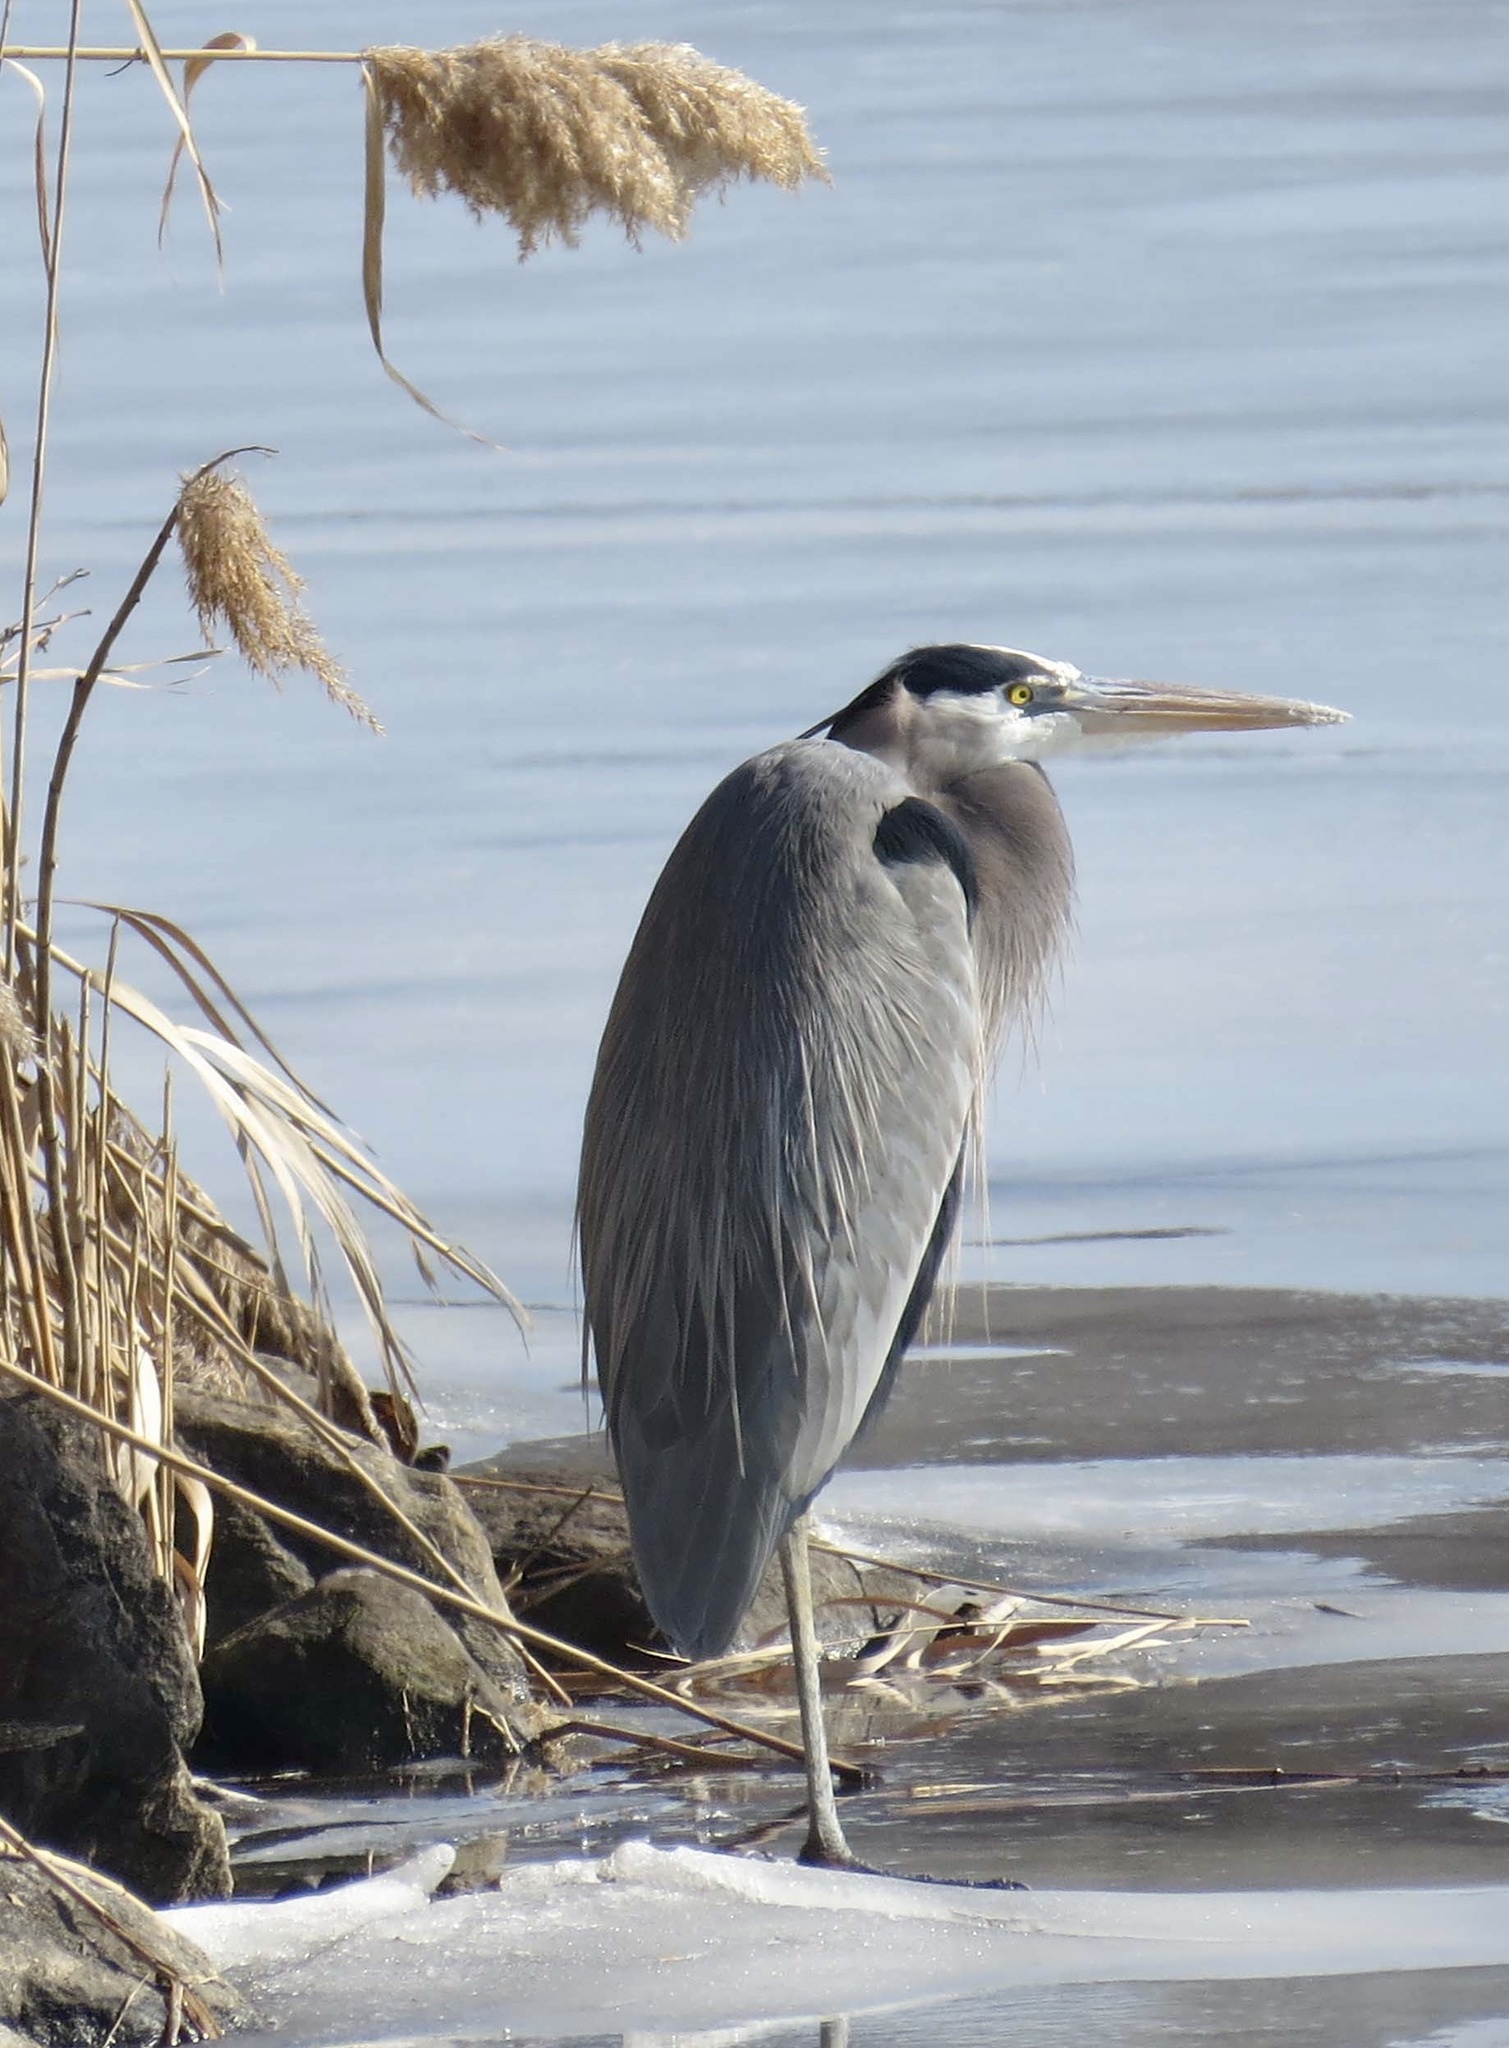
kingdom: Animalia
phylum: Chordata
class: Aves
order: Pelecaniformes
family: Ardeidae
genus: Ardea
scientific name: Ardea herodias
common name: Great blue heron
